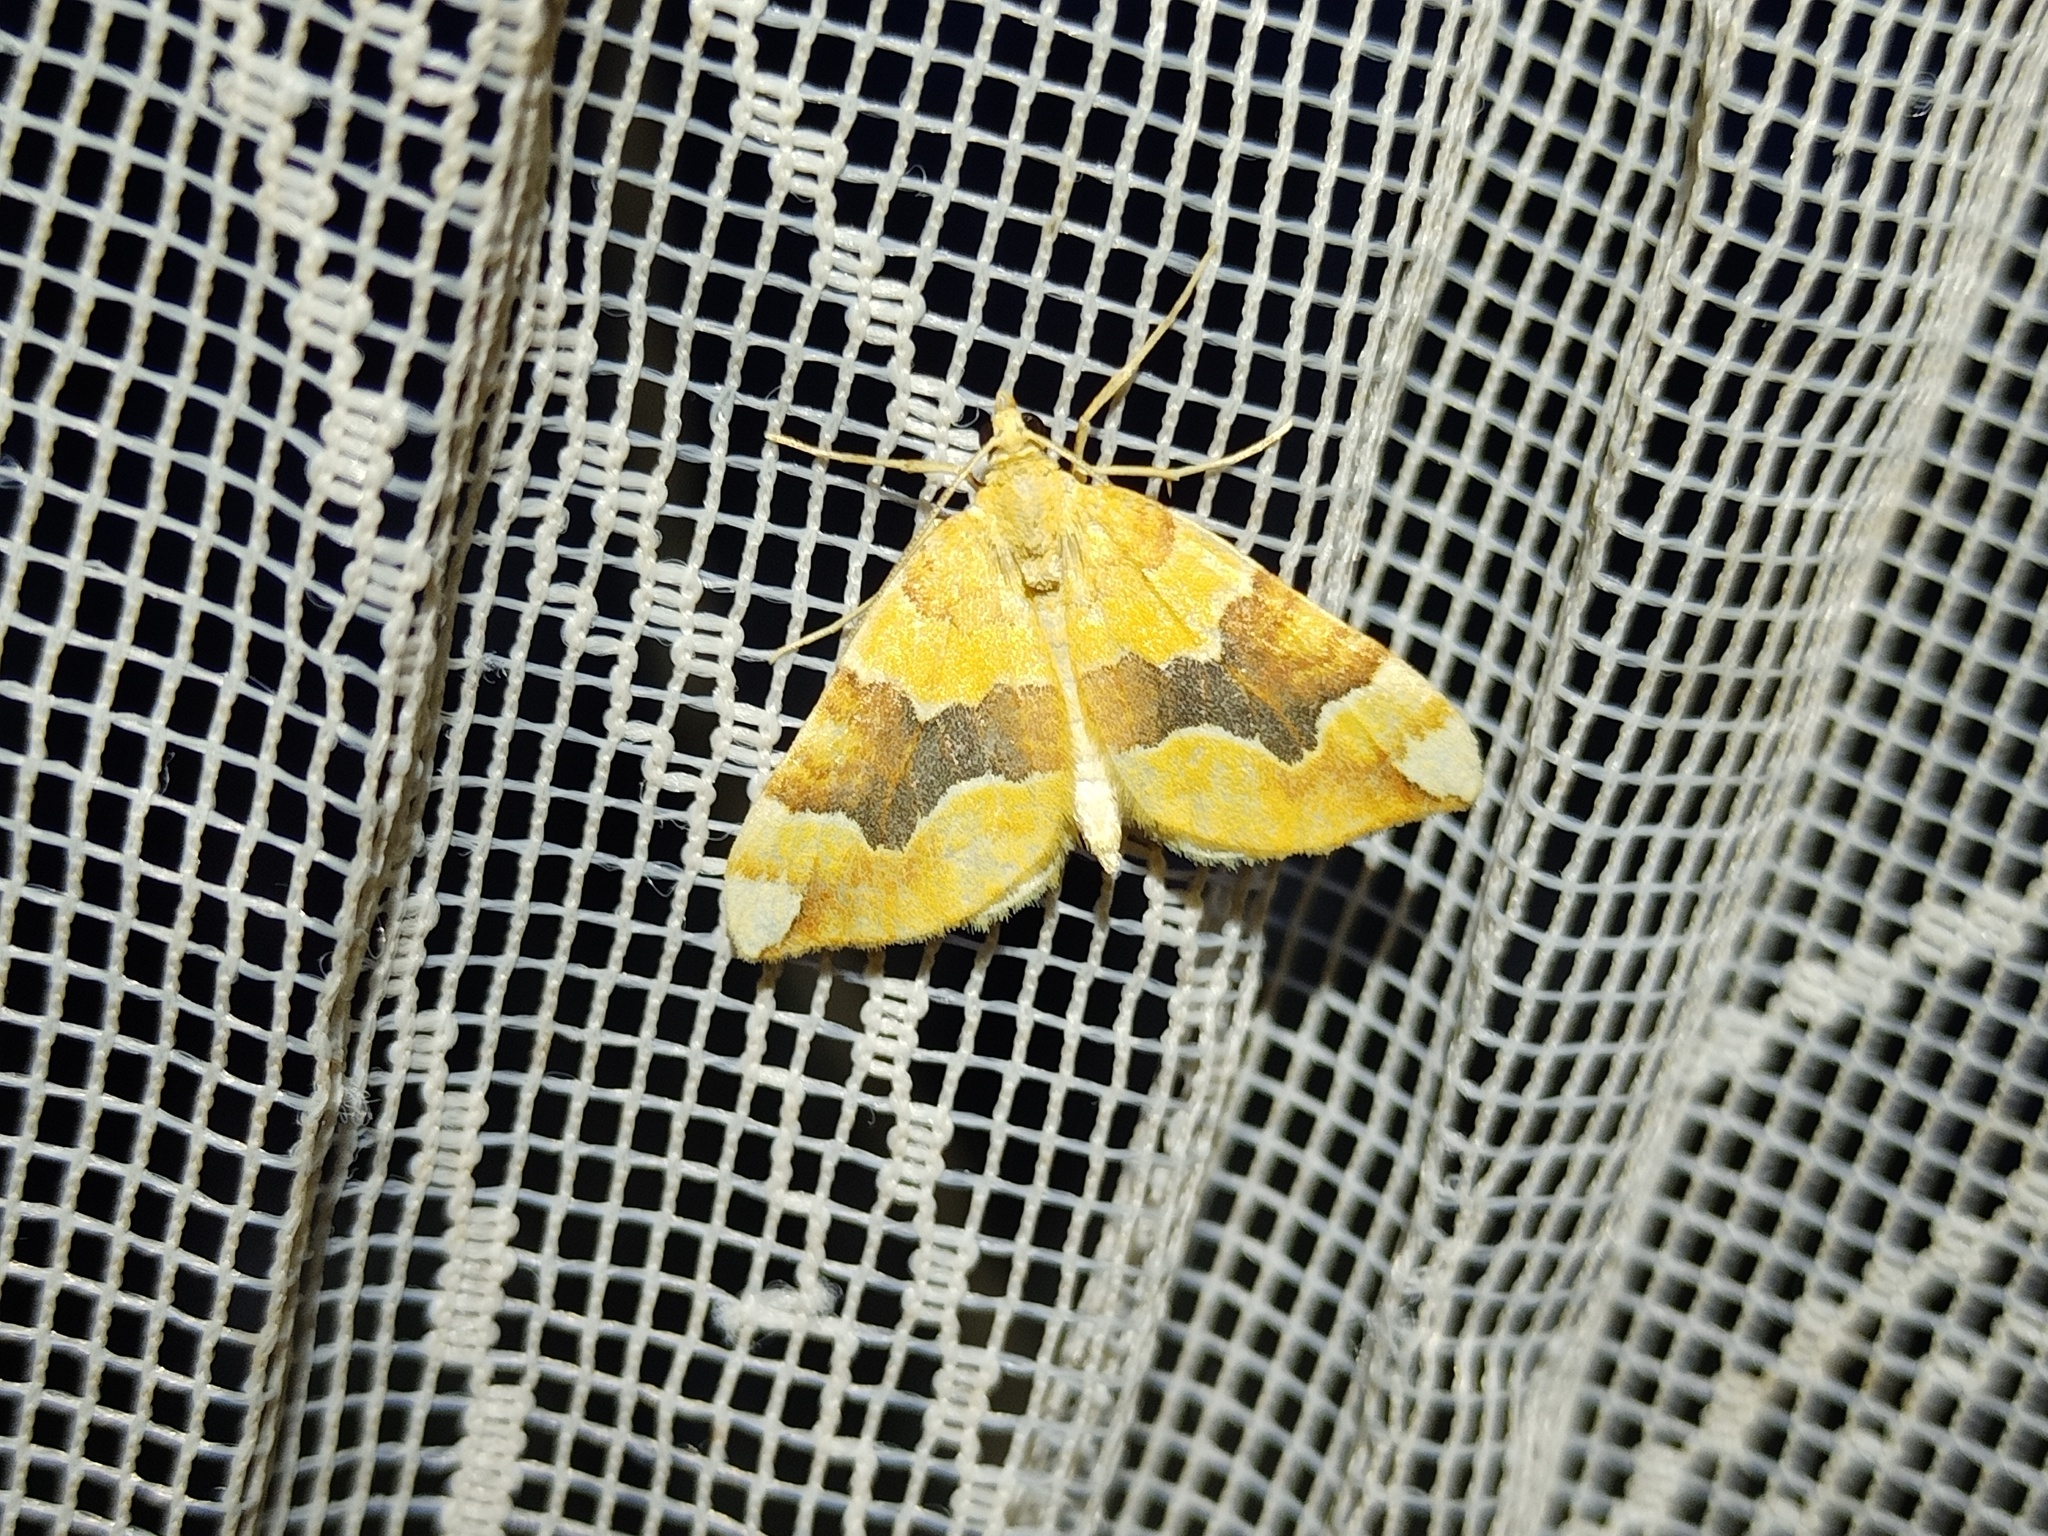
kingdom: Animalia
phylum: Arthropoda
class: Insecta
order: Lepidoptera
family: Geometridae
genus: Cidaria
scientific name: Cidaria fulvata
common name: Barred yellow
